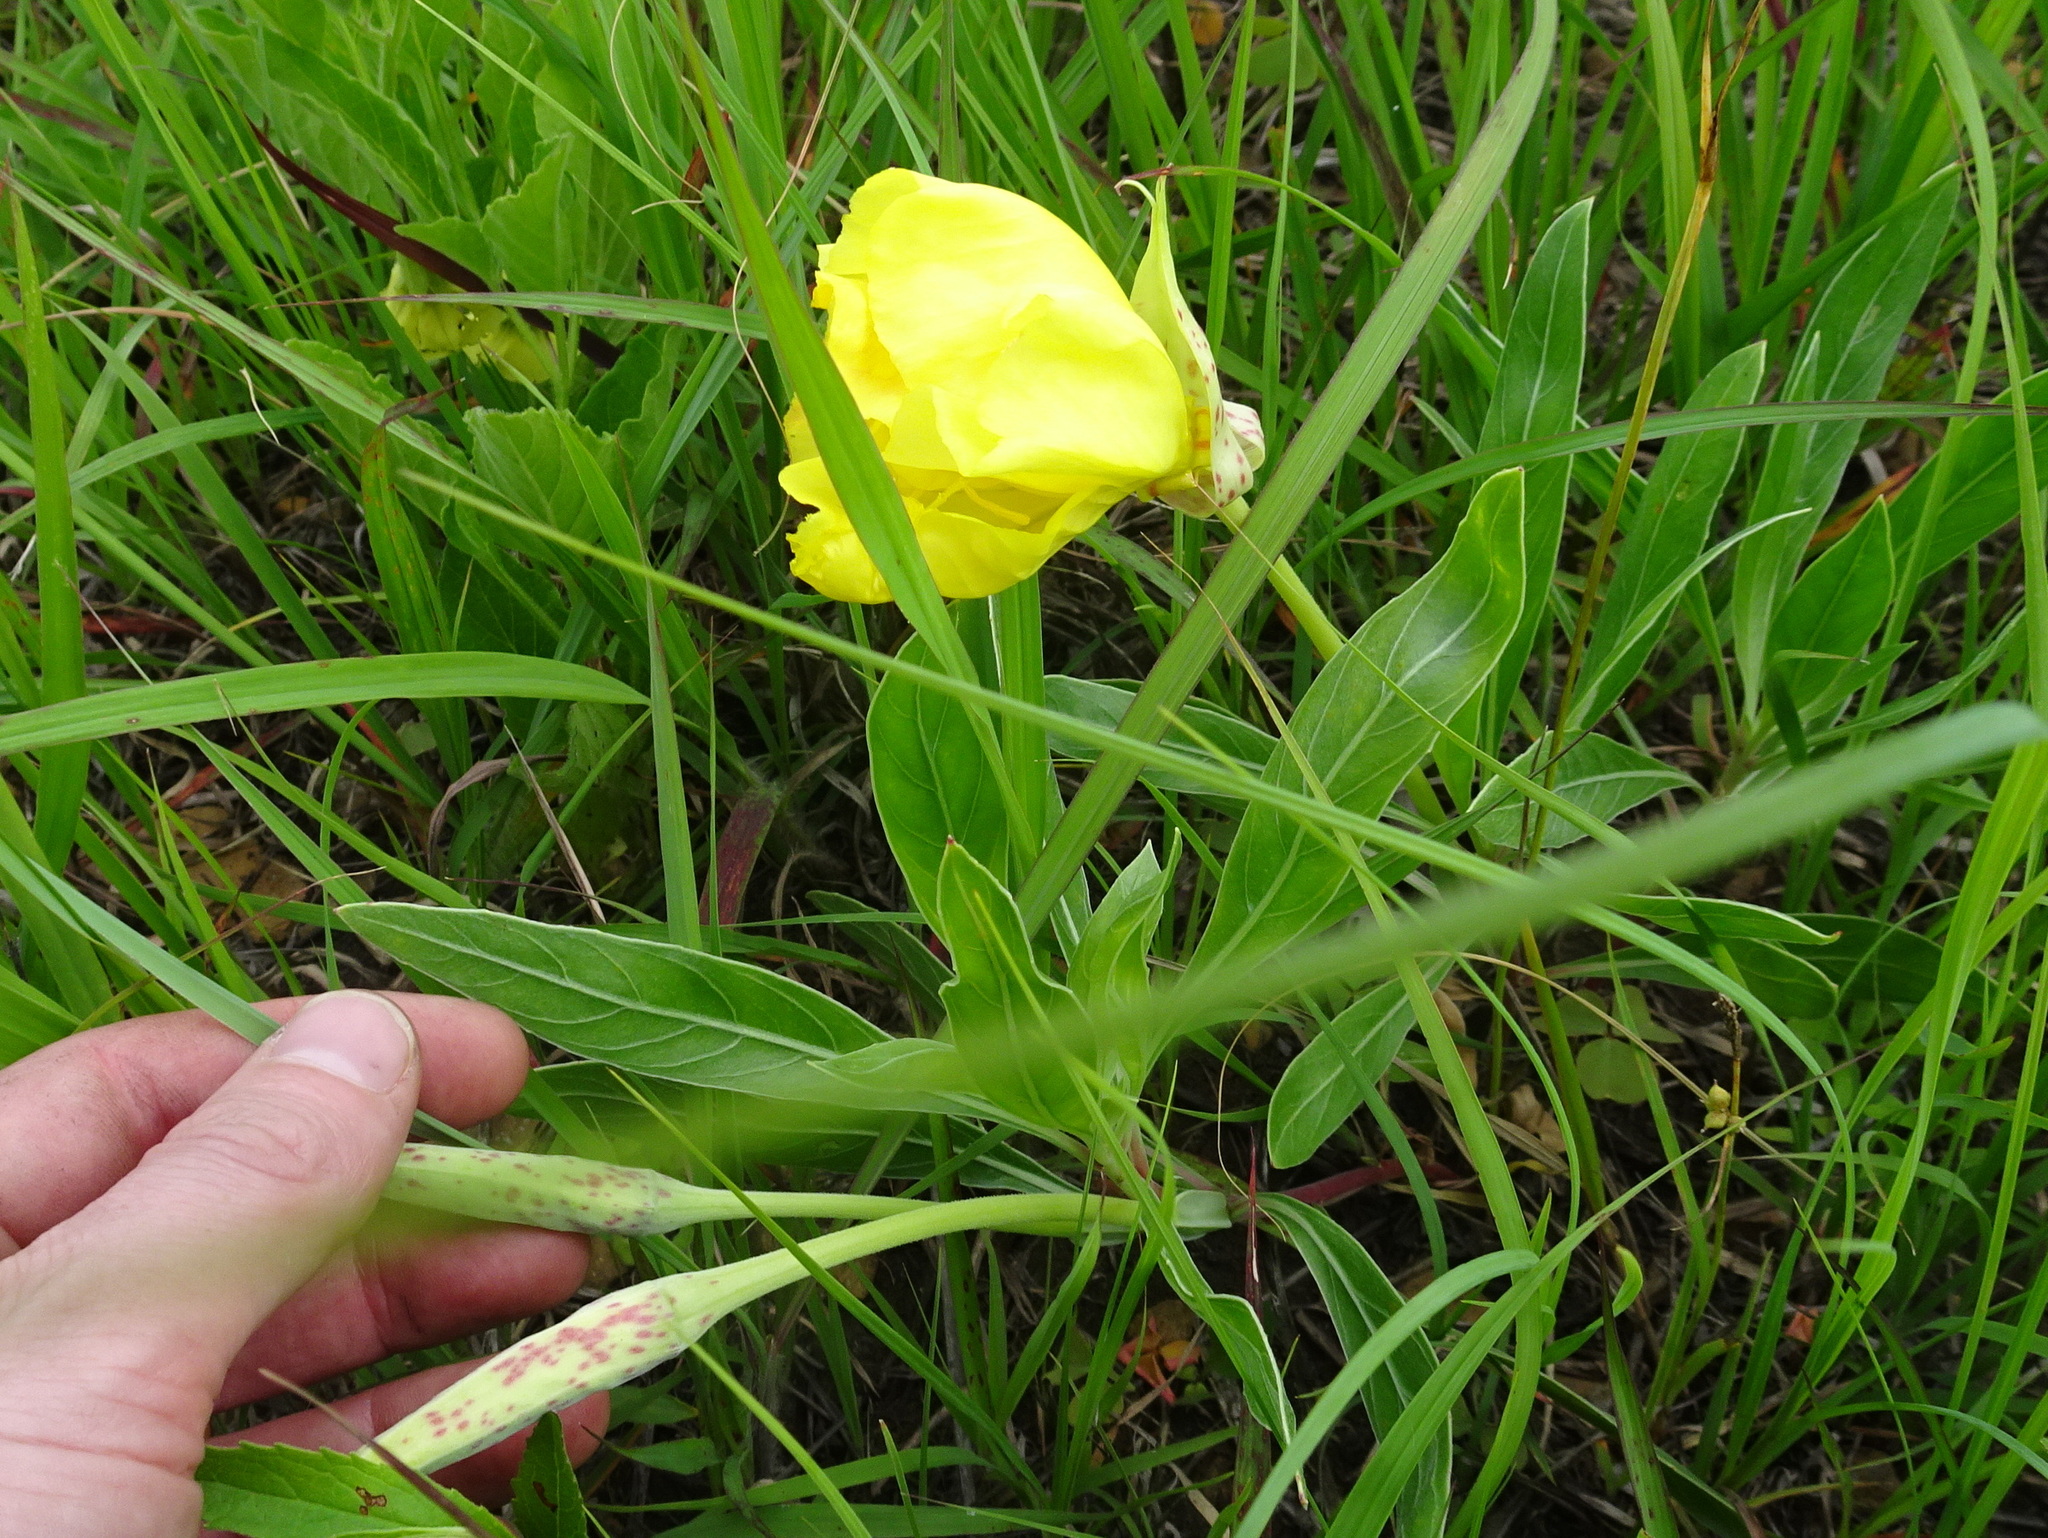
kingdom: Plantae
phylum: Tracheophyta
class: Magnoliopsida
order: Myrtales
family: Onagraceae
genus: Oenothera
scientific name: Oenothera macrocarpa
